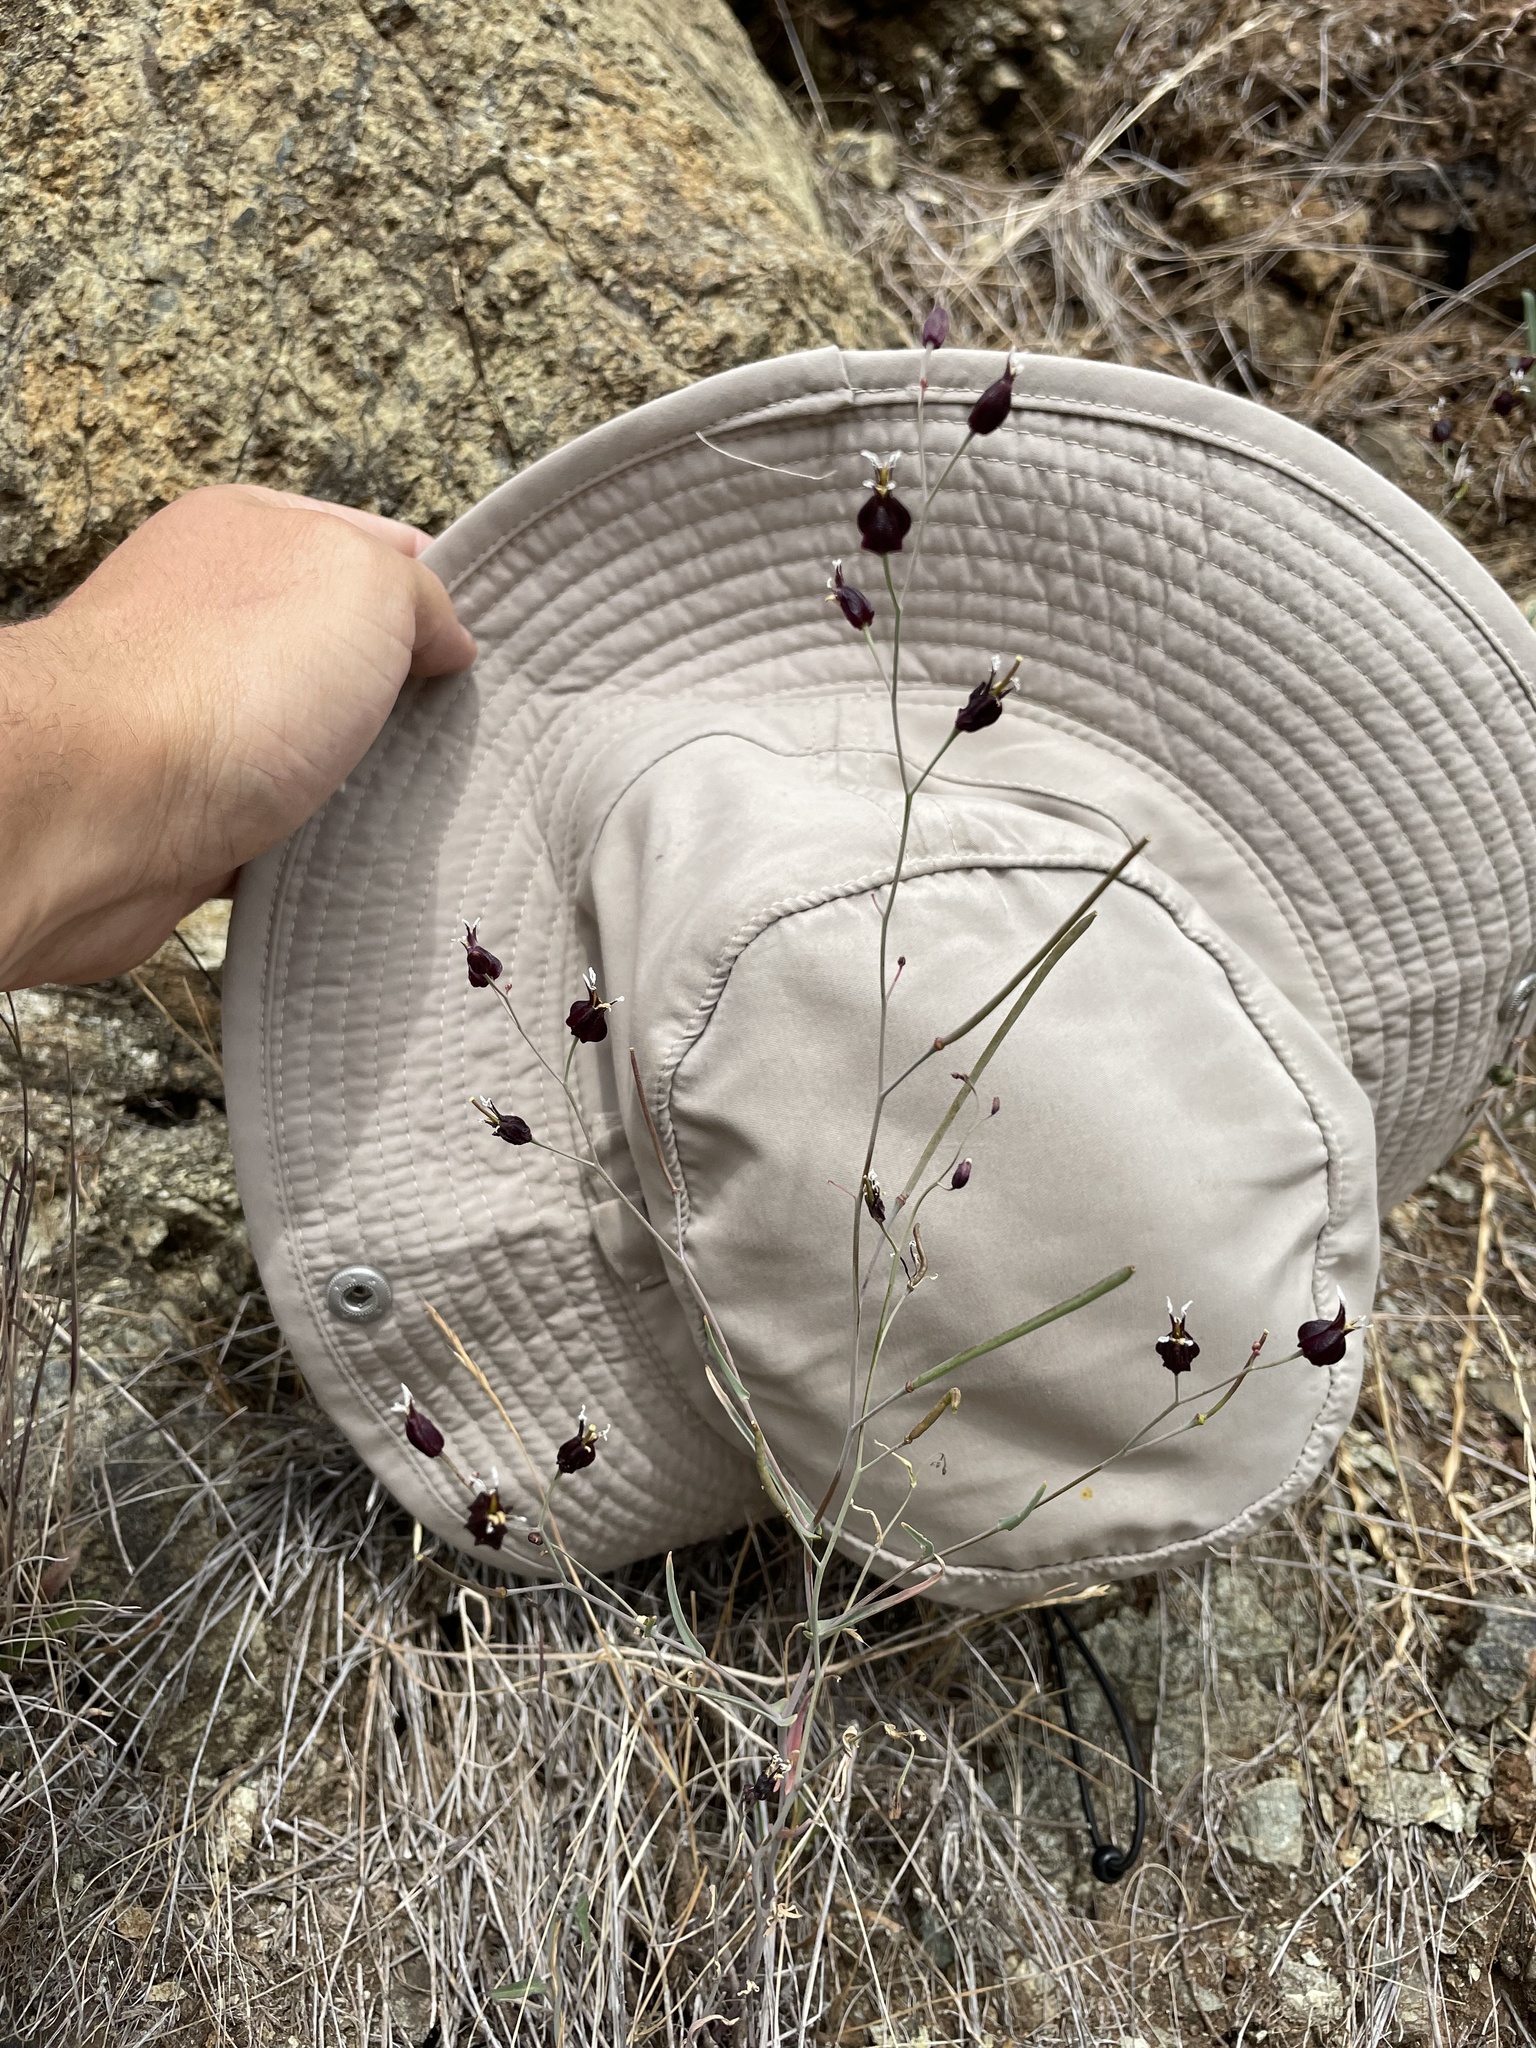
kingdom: Plantae
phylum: Tracheophyta
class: Magnoliopsida
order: Brassicales
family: Brassicaceae
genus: Streptanthus
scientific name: Streptanthus glandulosus
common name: Jewel-flower
